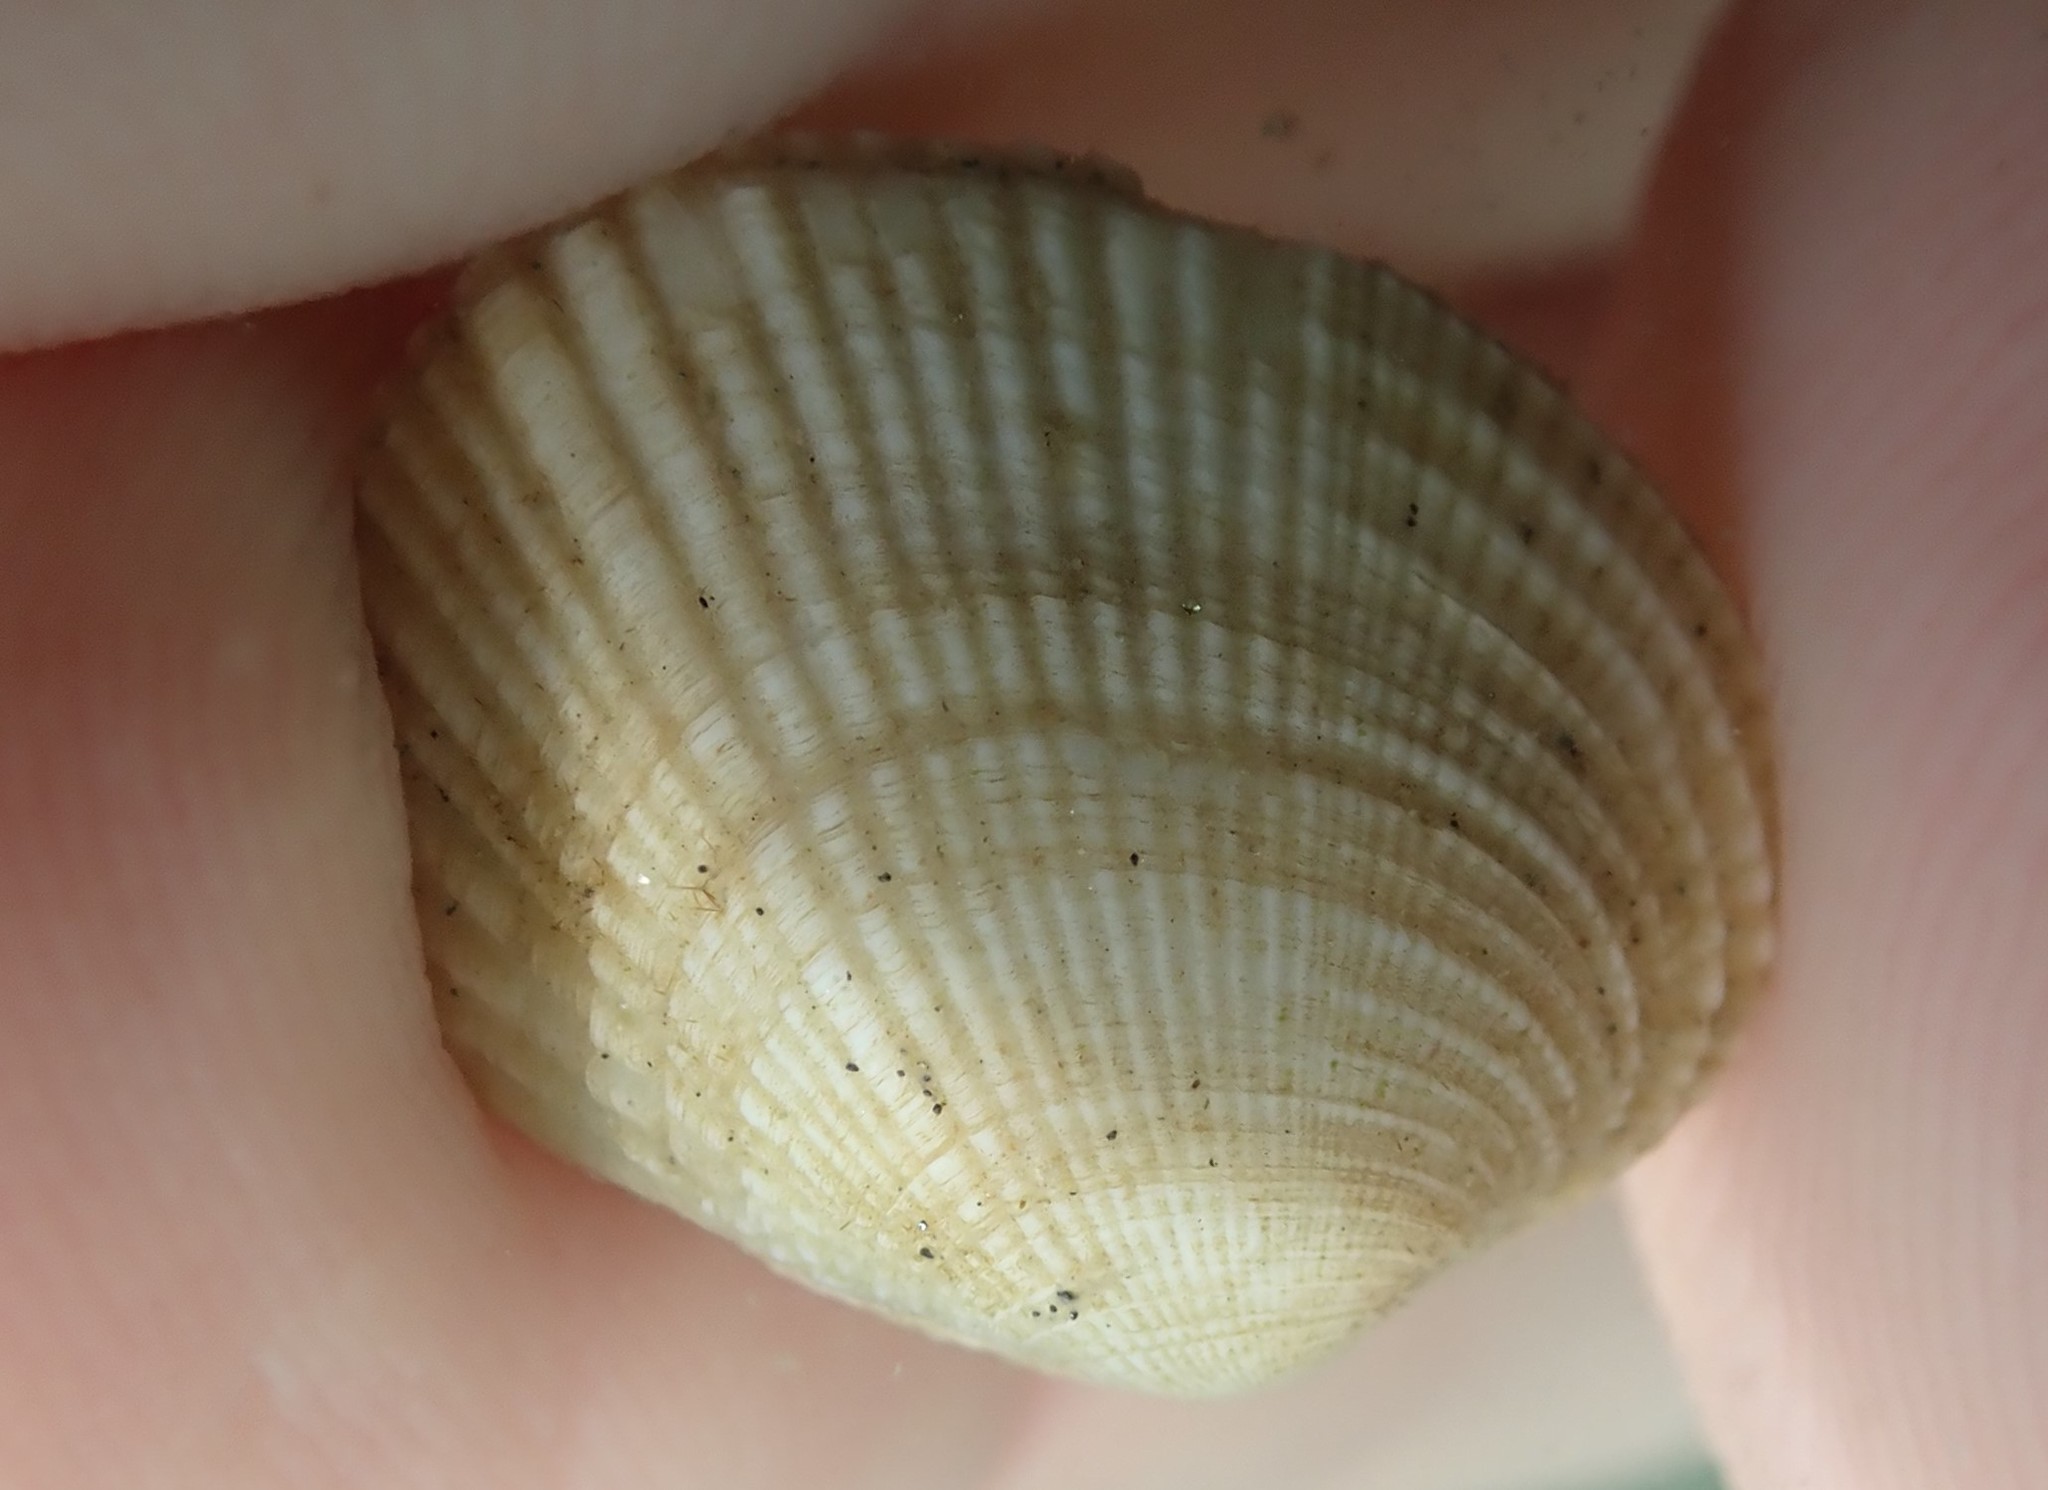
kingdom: Animalia
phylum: Mollusca
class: Bivalvia
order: Venerida
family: Veneridae
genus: Leukoma
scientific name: Leukoma crassicosta
